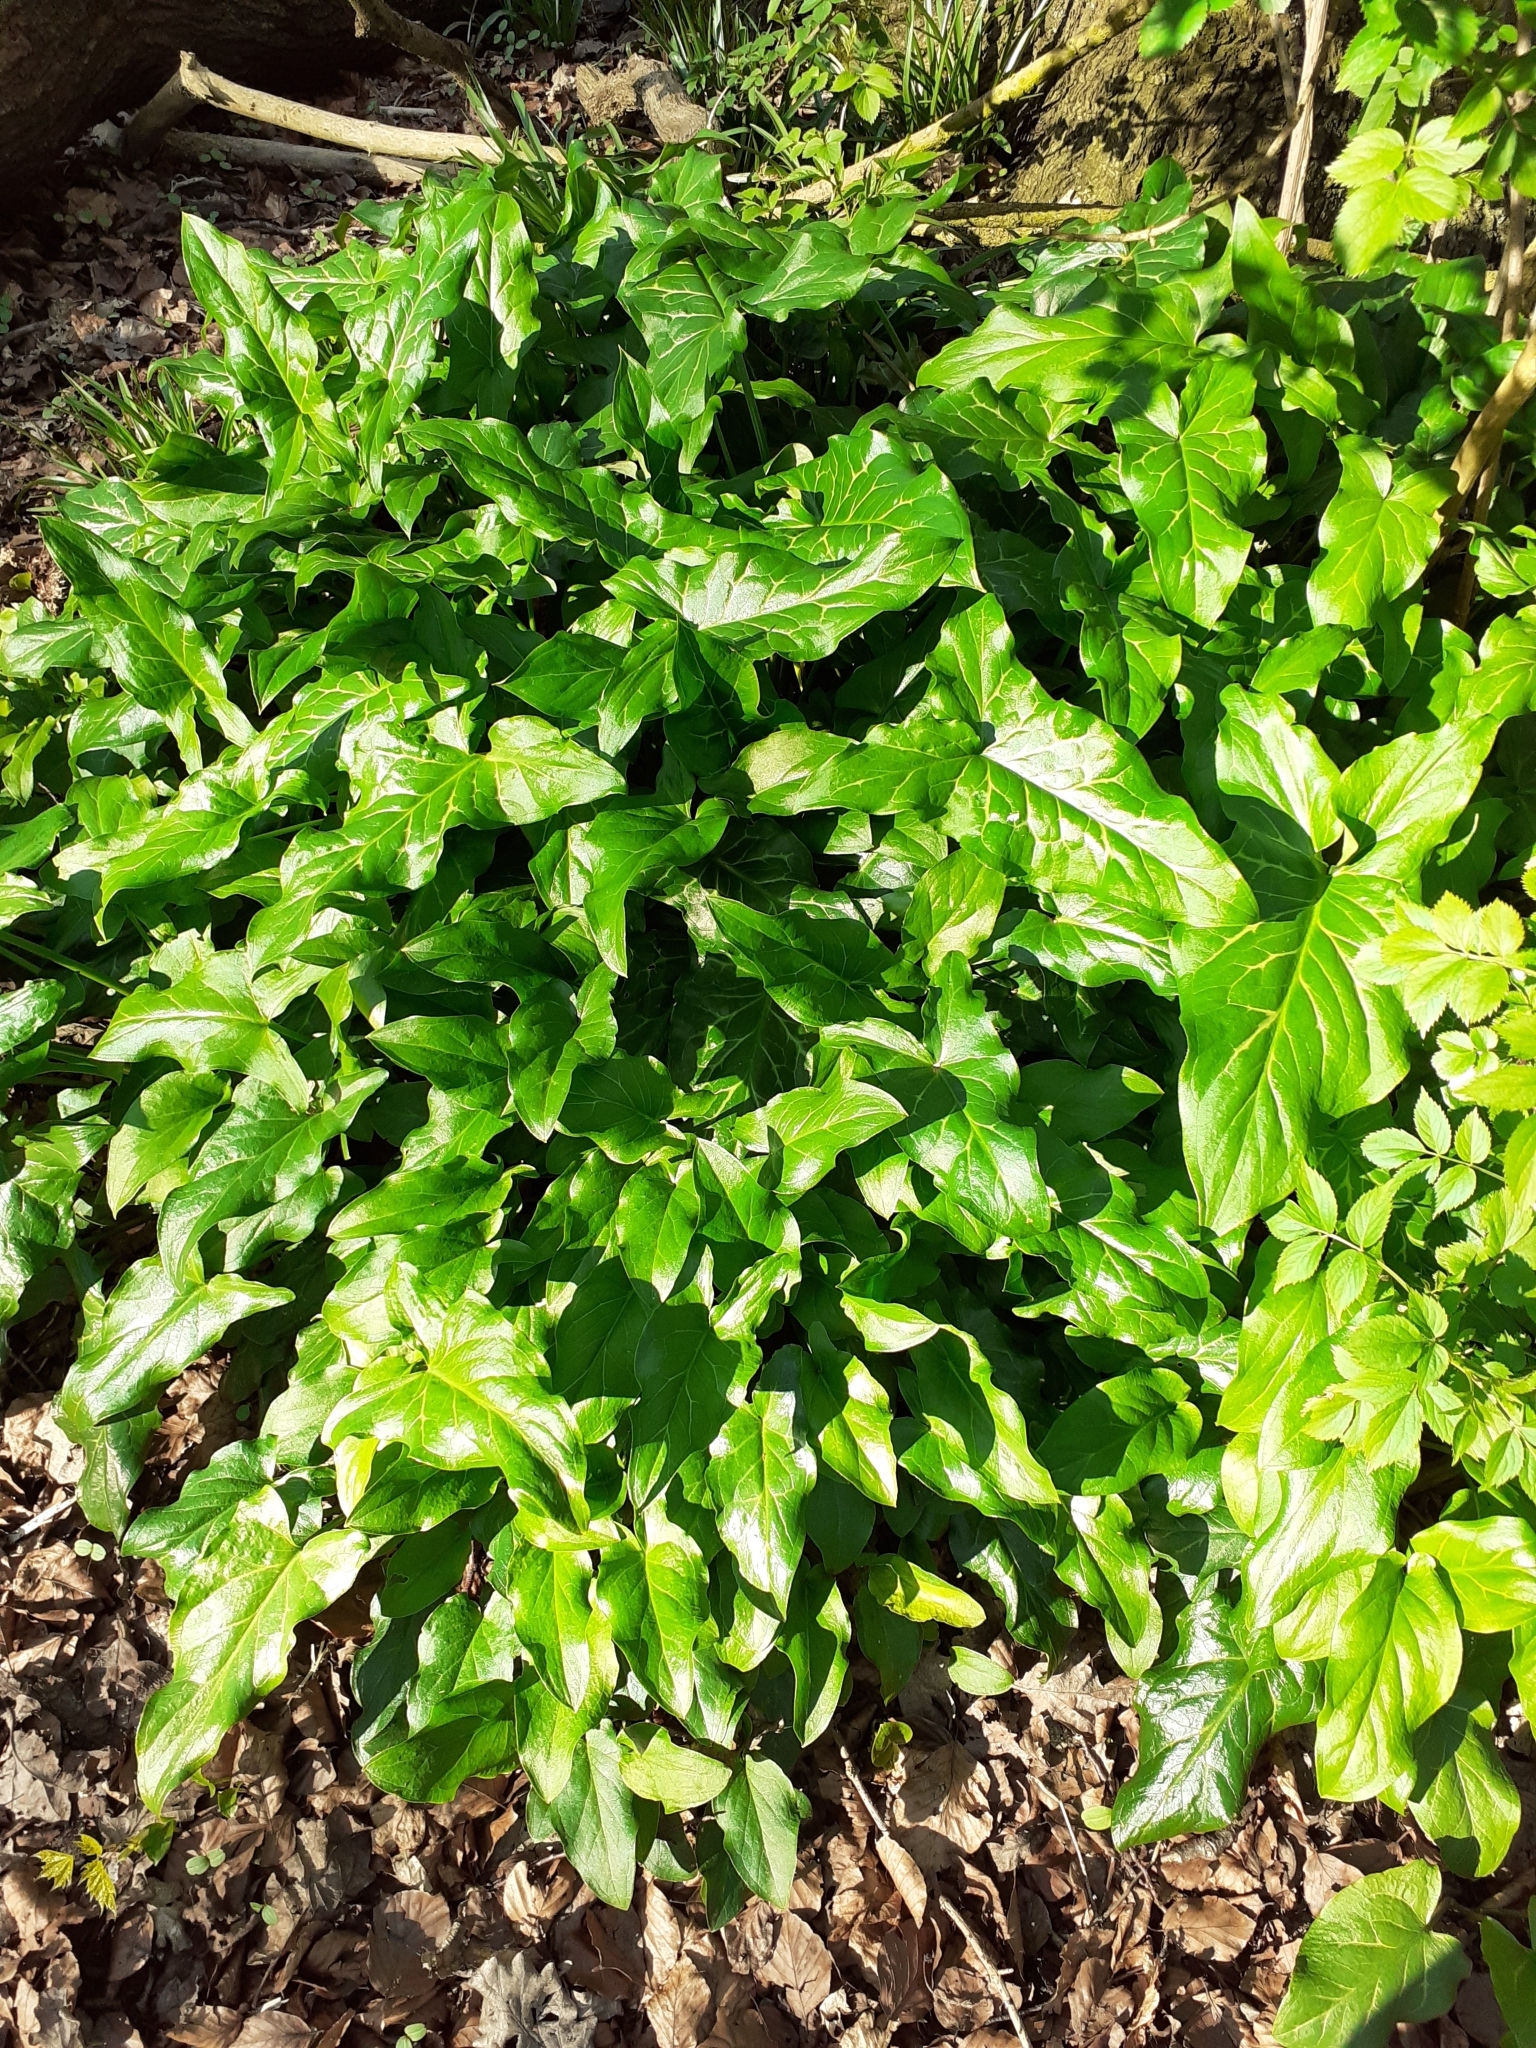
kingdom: Plantae
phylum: Tracheophyta
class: Liliopsida
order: Alismatales
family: Araceae
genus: Arum
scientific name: Arum italicum
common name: Italian lords-and-ladies
